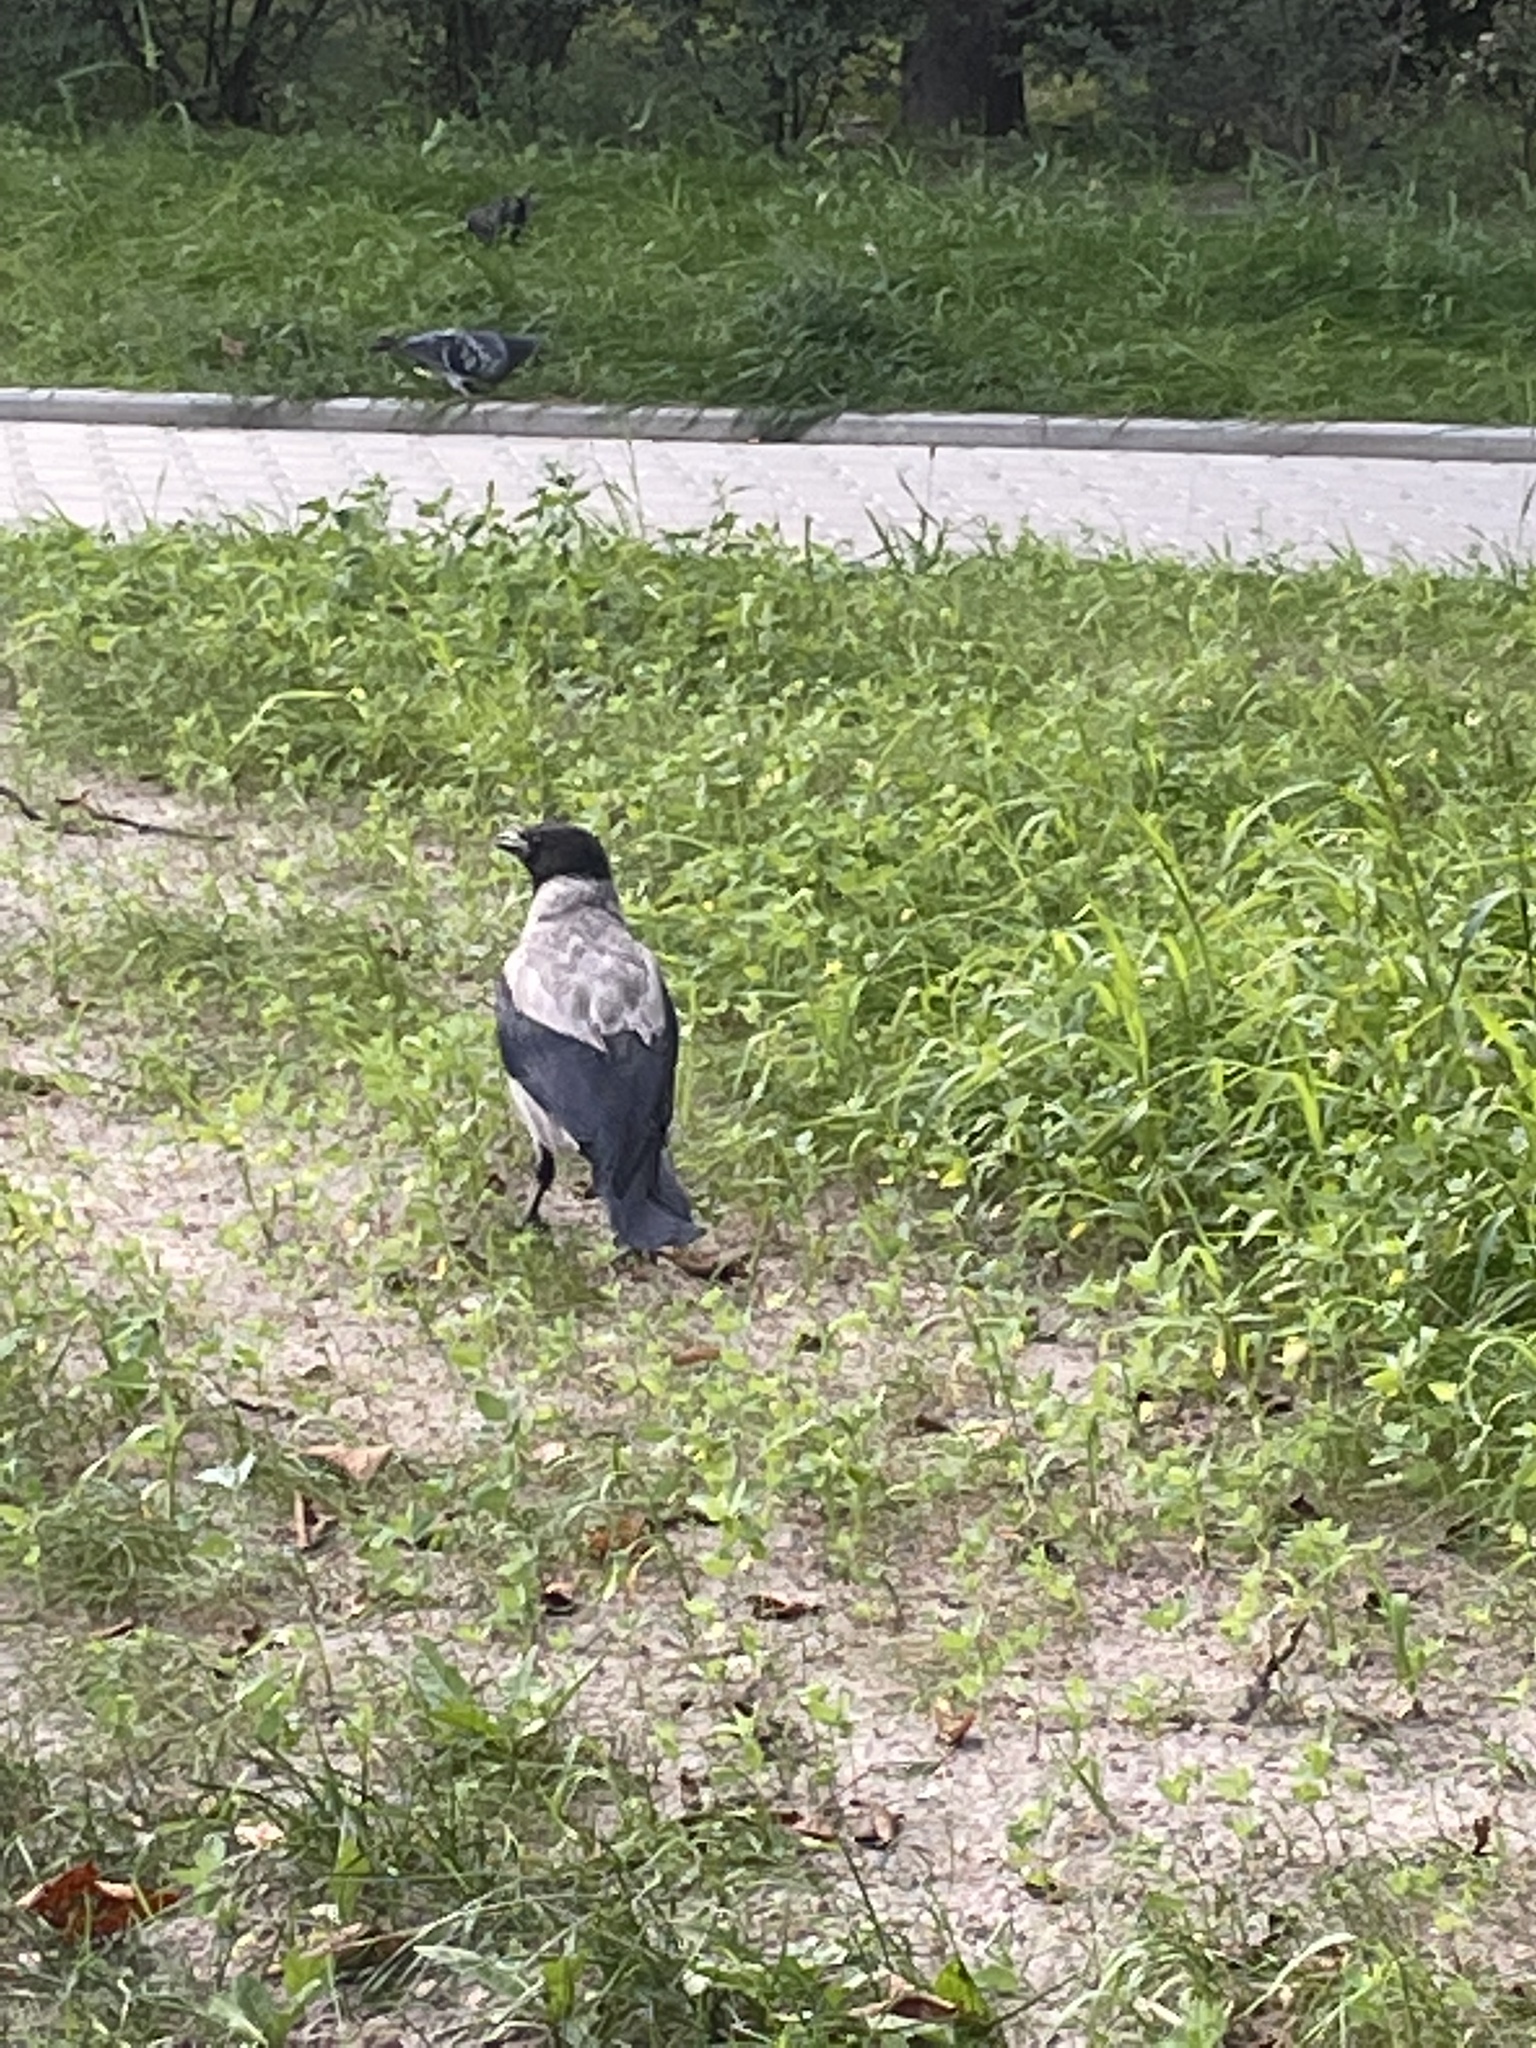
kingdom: Animalia
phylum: Chordata
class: Aves
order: Passeriformes
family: Corvidae
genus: Corvus
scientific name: Corvus cornix
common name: Hooded crow
